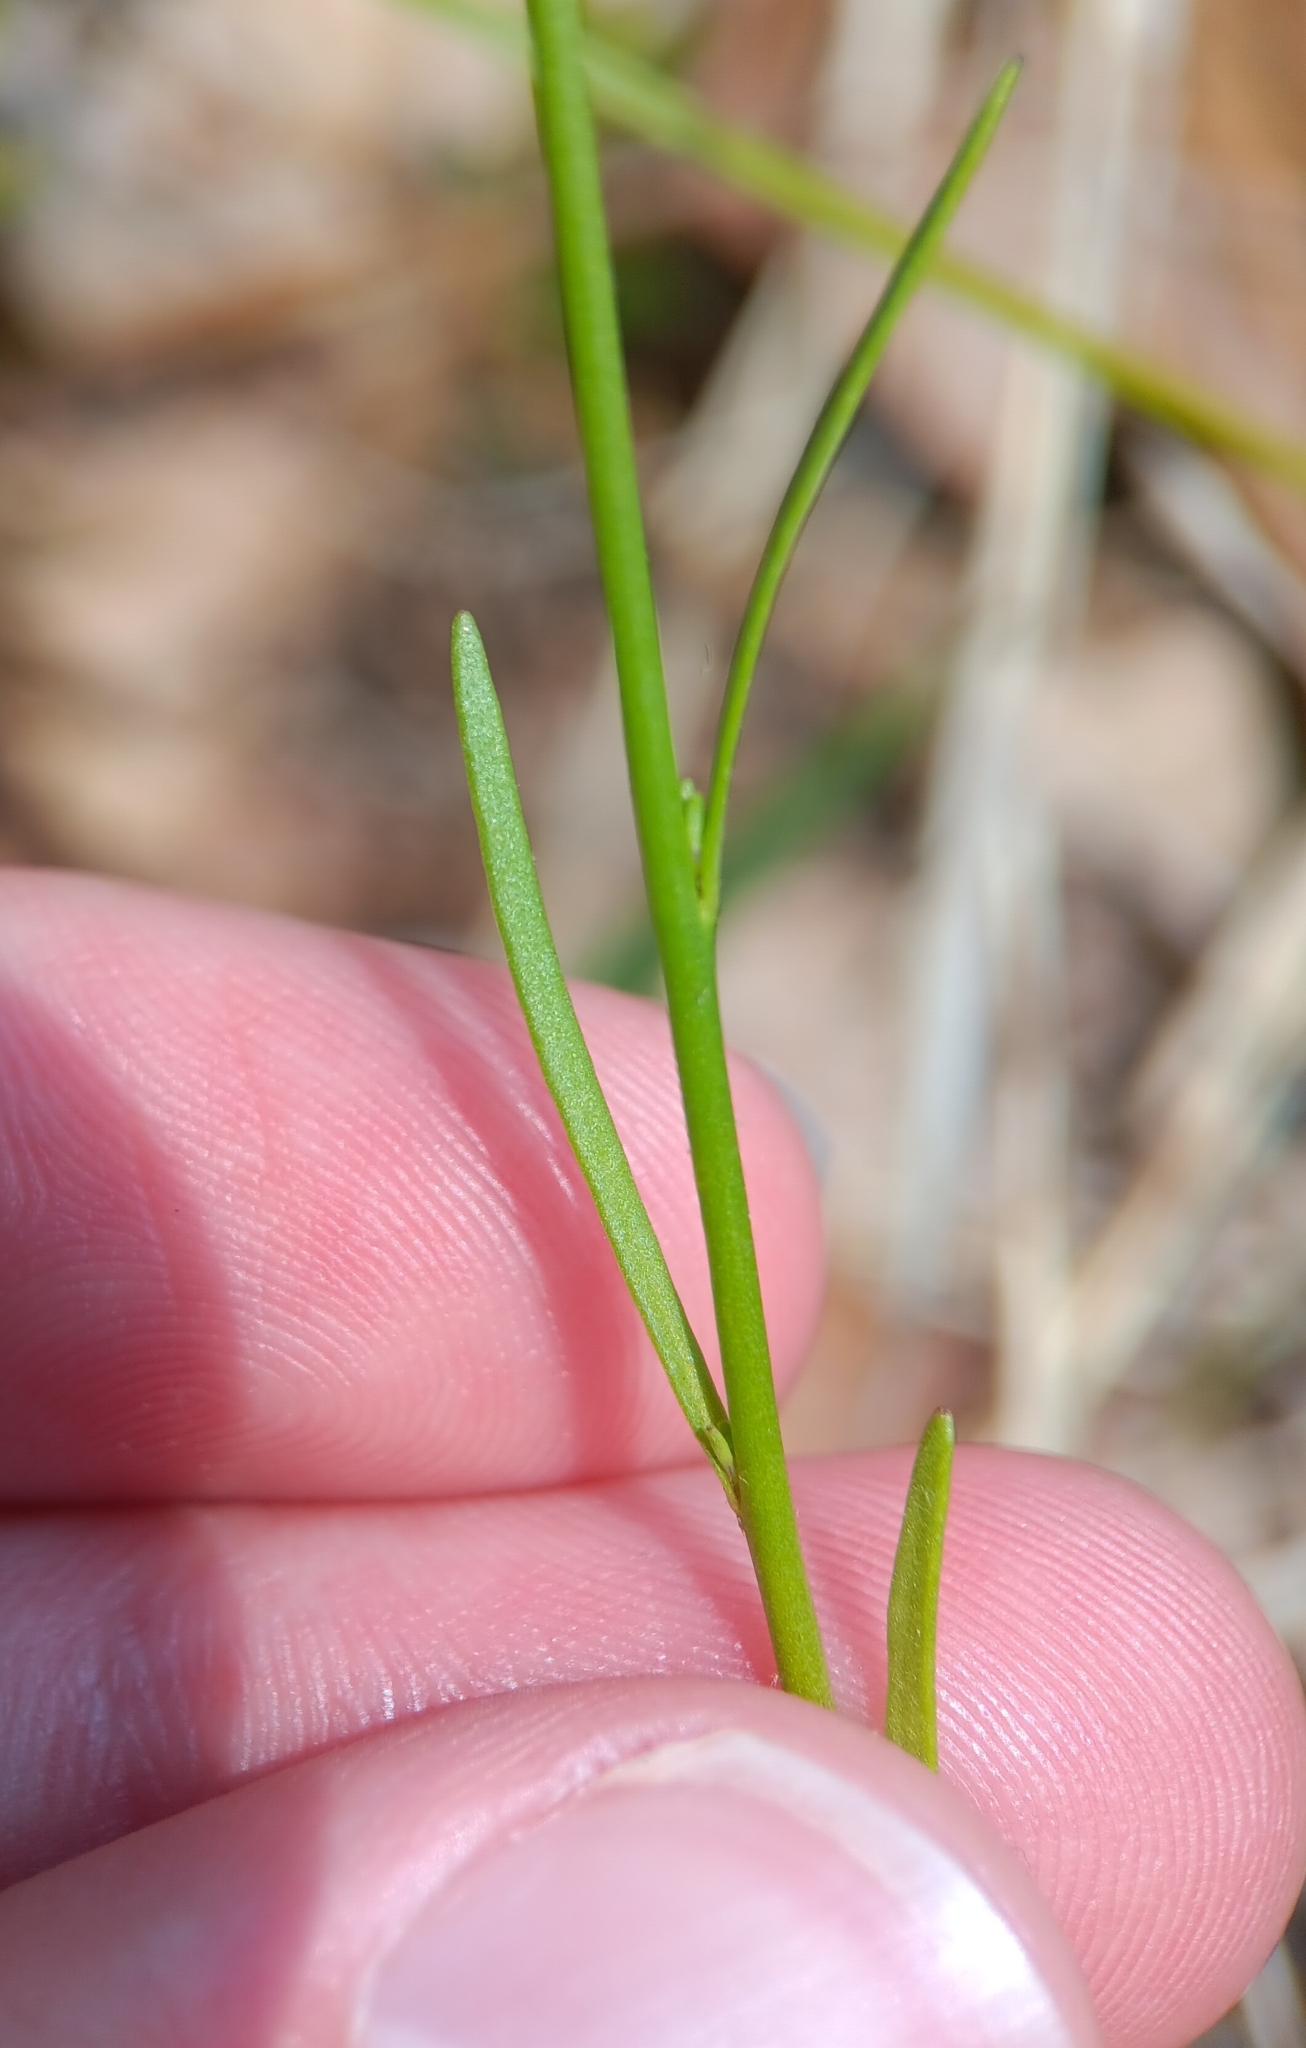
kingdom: Plantae
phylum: Tracheophyta
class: Magnoliopsida
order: Lamiales
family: Plantaginaceae
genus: Nuttallanthus
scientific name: Nuttallanthus canadensis
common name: Blue toadflax
